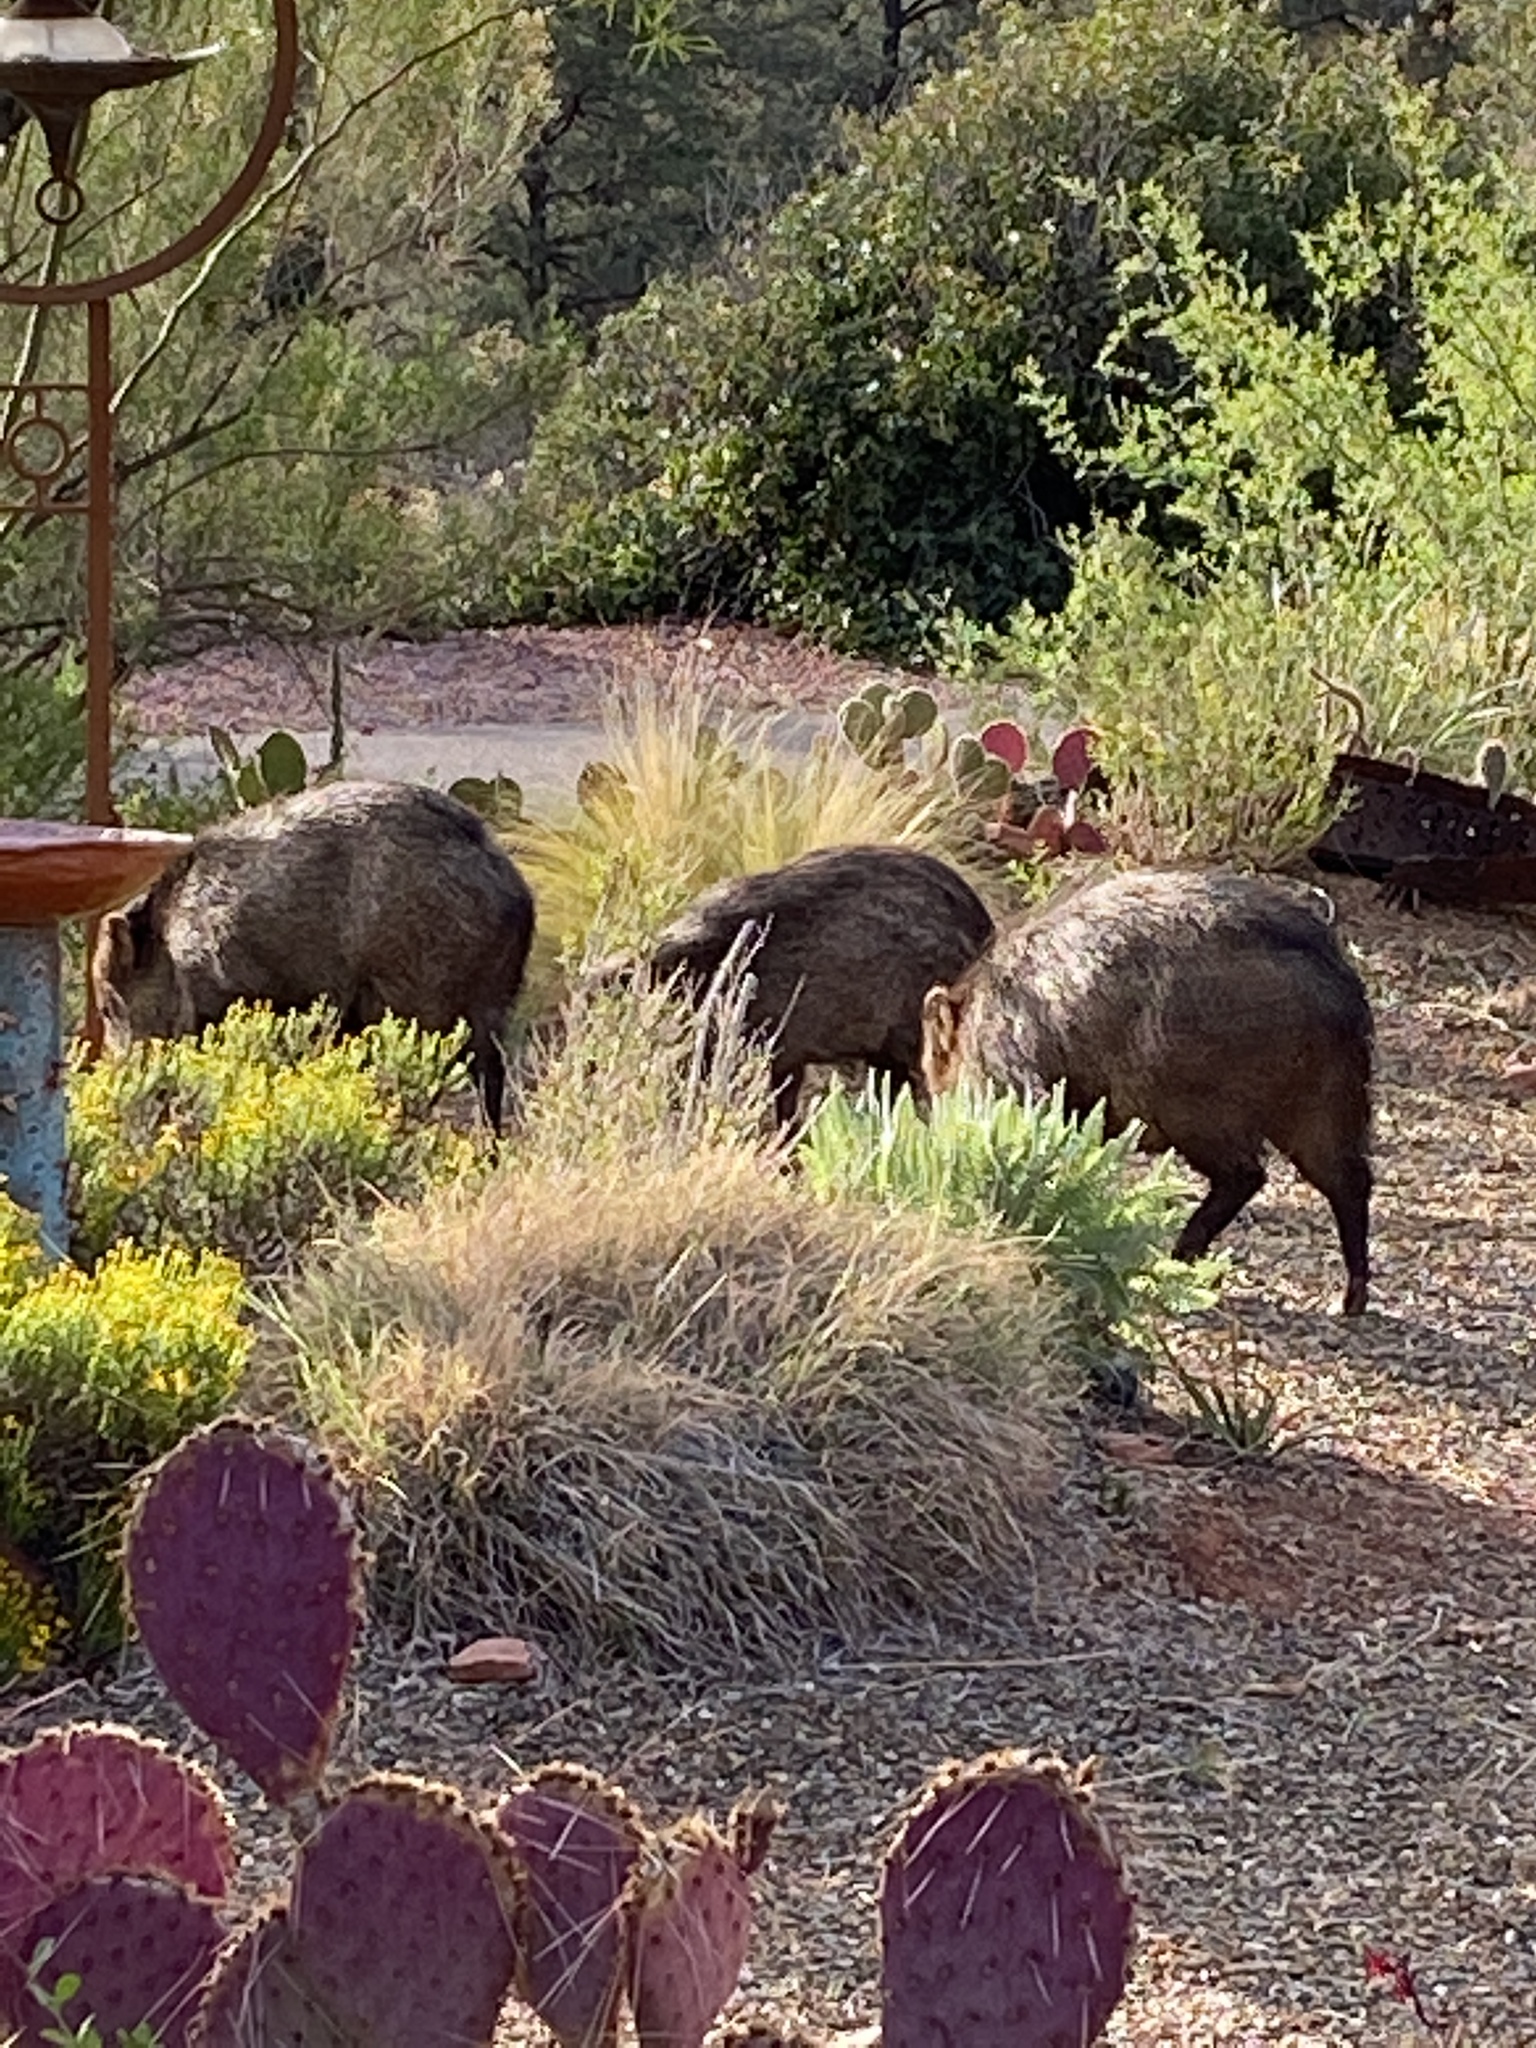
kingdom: Animalia
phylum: Chordata
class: Mammalia
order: Artiodactyla
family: Tayassuidae
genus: Pecari
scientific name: Pecari tajacu
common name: Collared peccary
